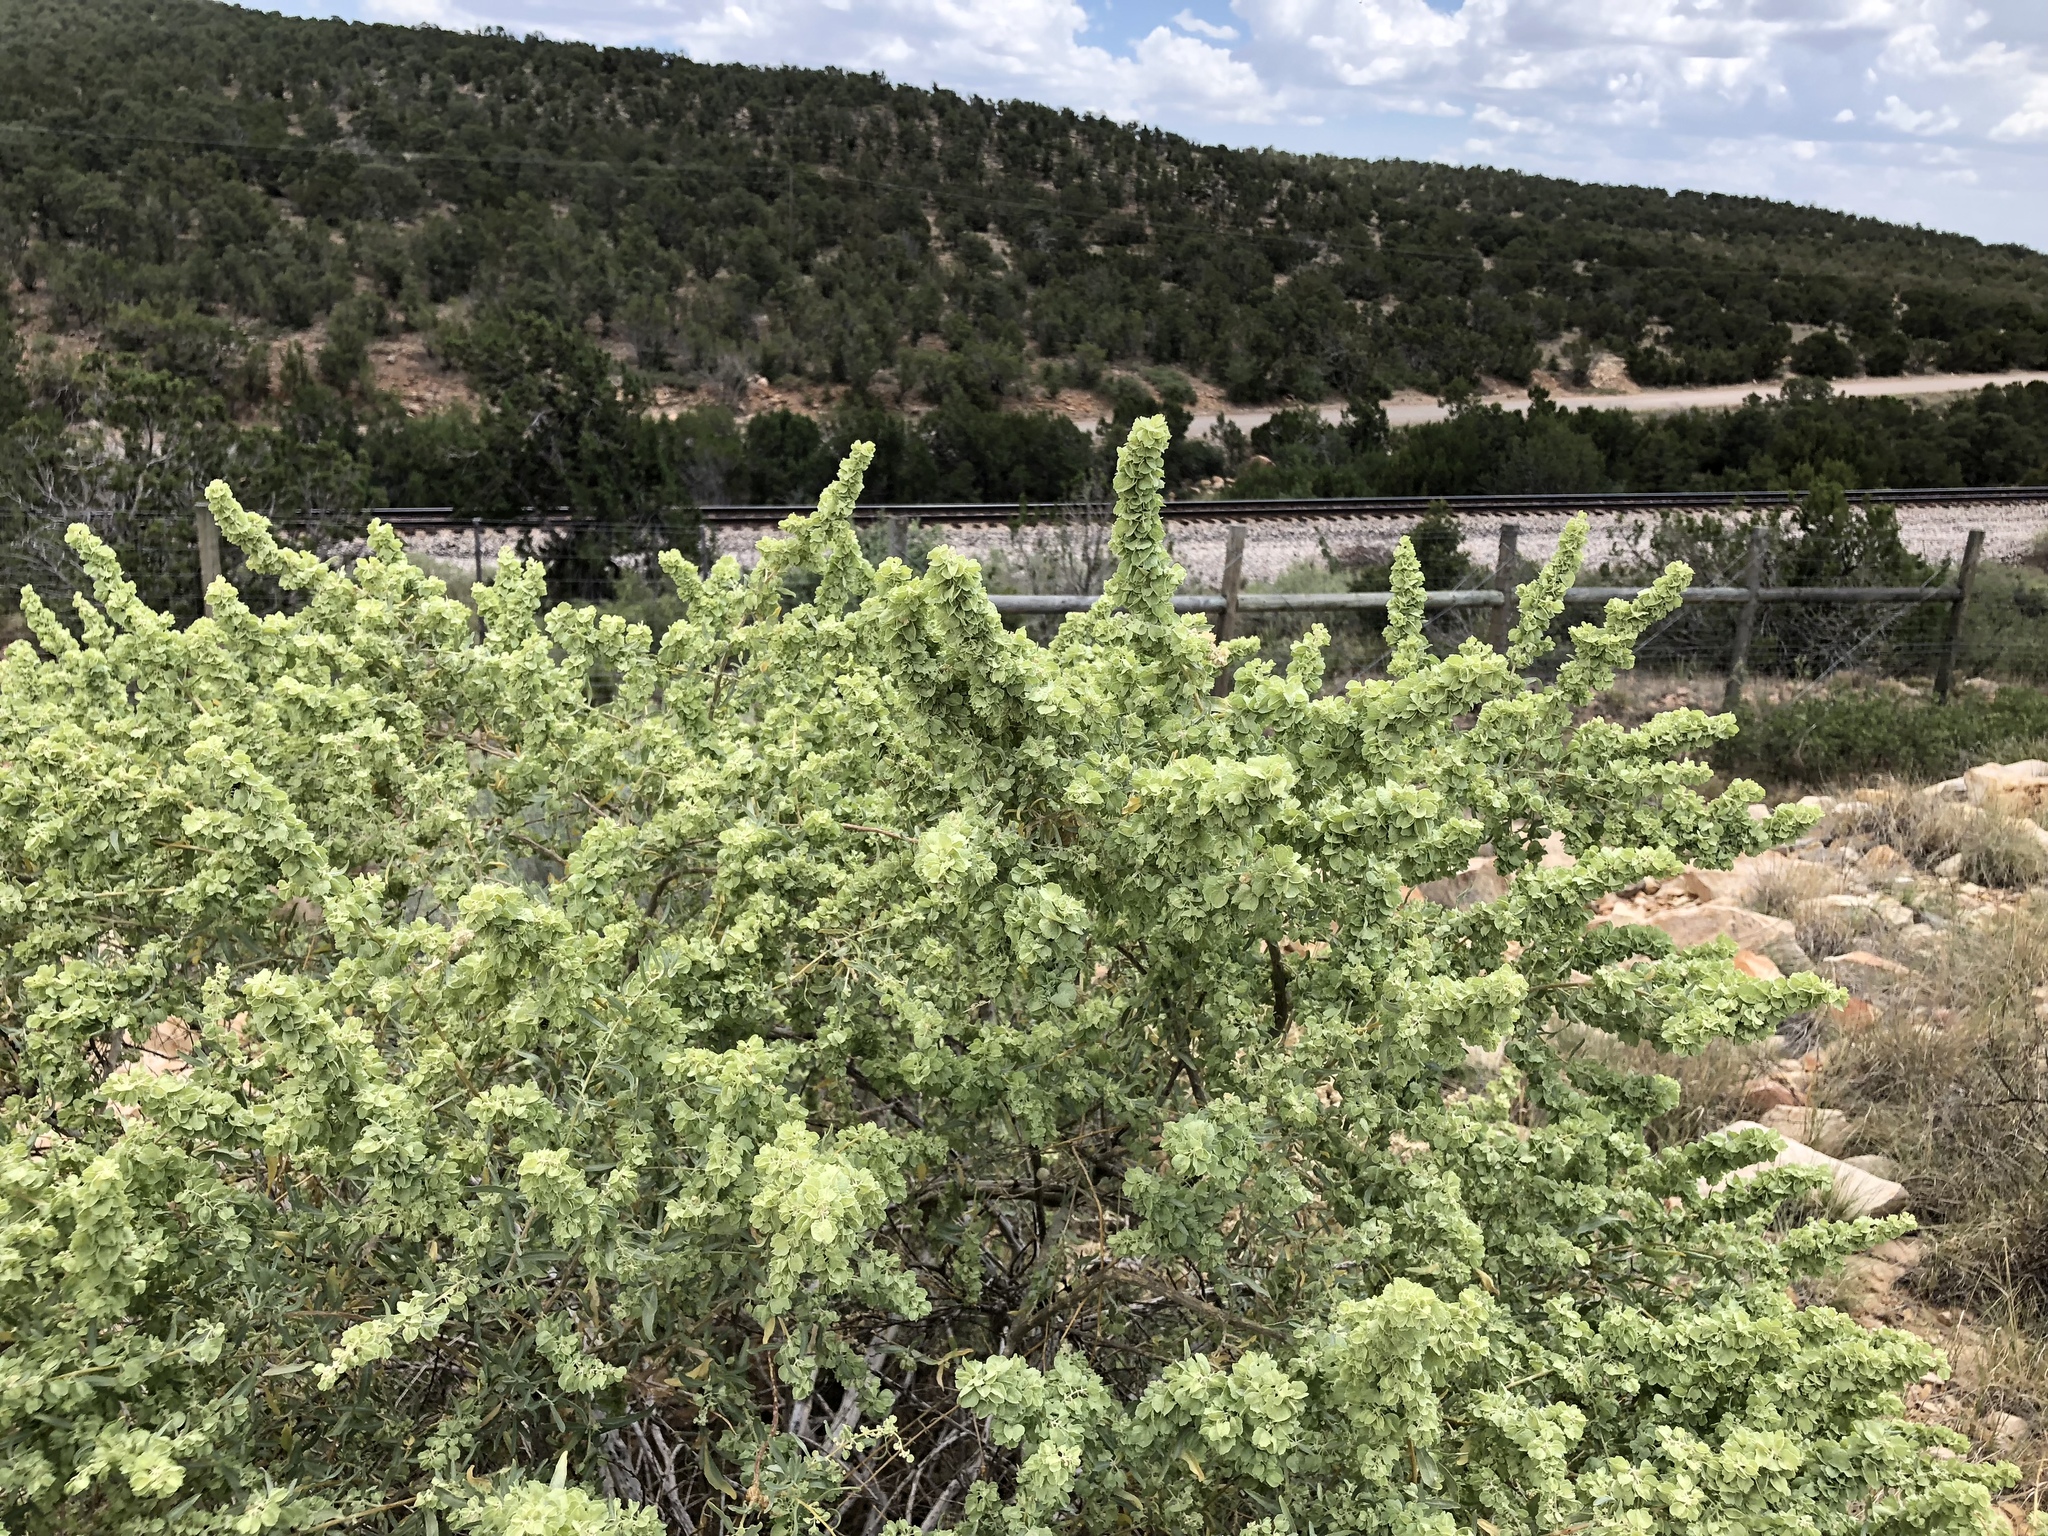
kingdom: Plantae
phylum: Tracheophyta
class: Magnoliopsida
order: Caryophyllales
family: Amaranthaceae
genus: Atriplex
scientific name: Atriplex canescens
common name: Four-wing saltbush
